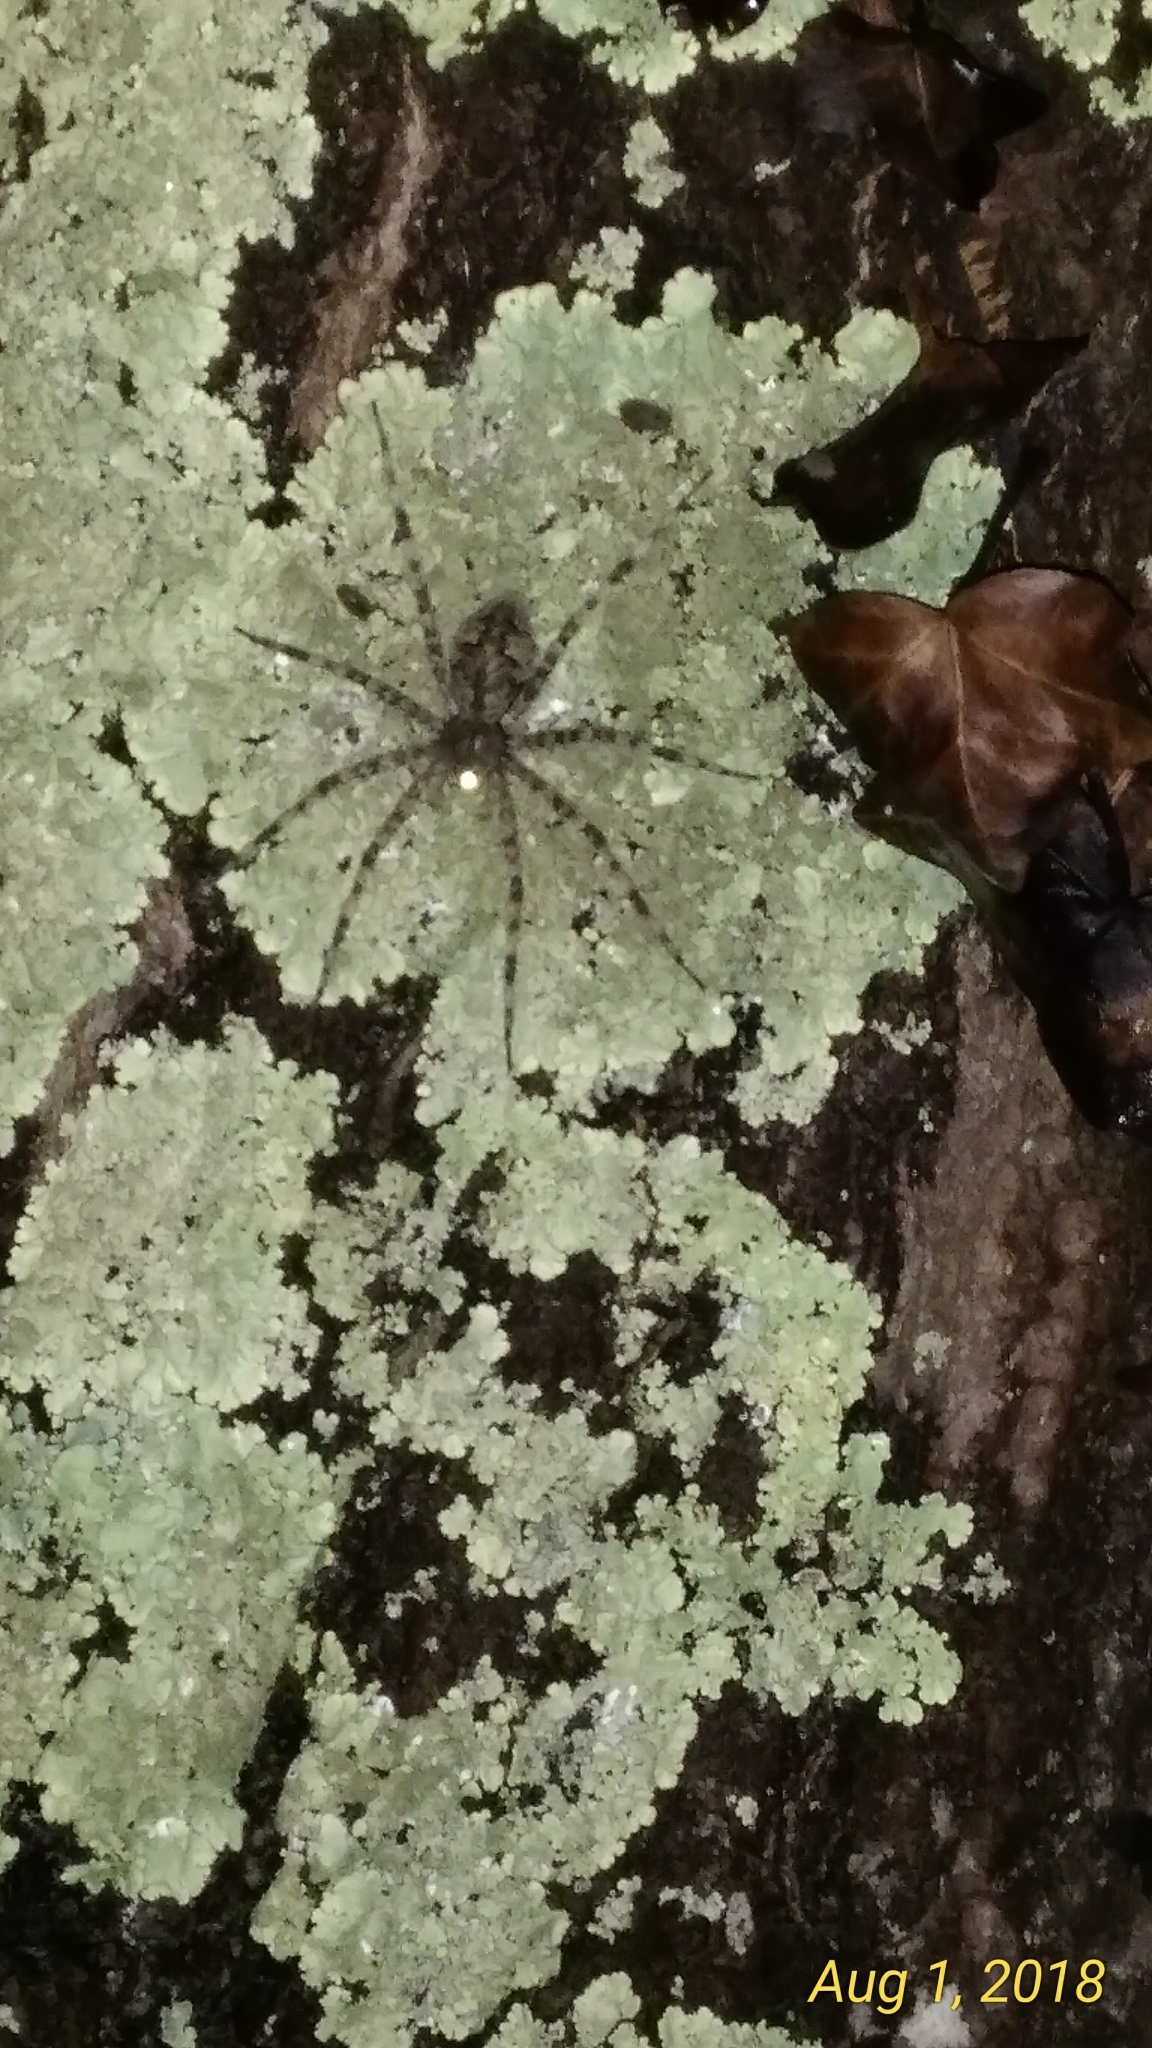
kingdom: Animalia
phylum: Arthropoda
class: Arachnida
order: Araneae
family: Pisauridae
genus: Dolomedes
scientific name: Dolomedes albineus
